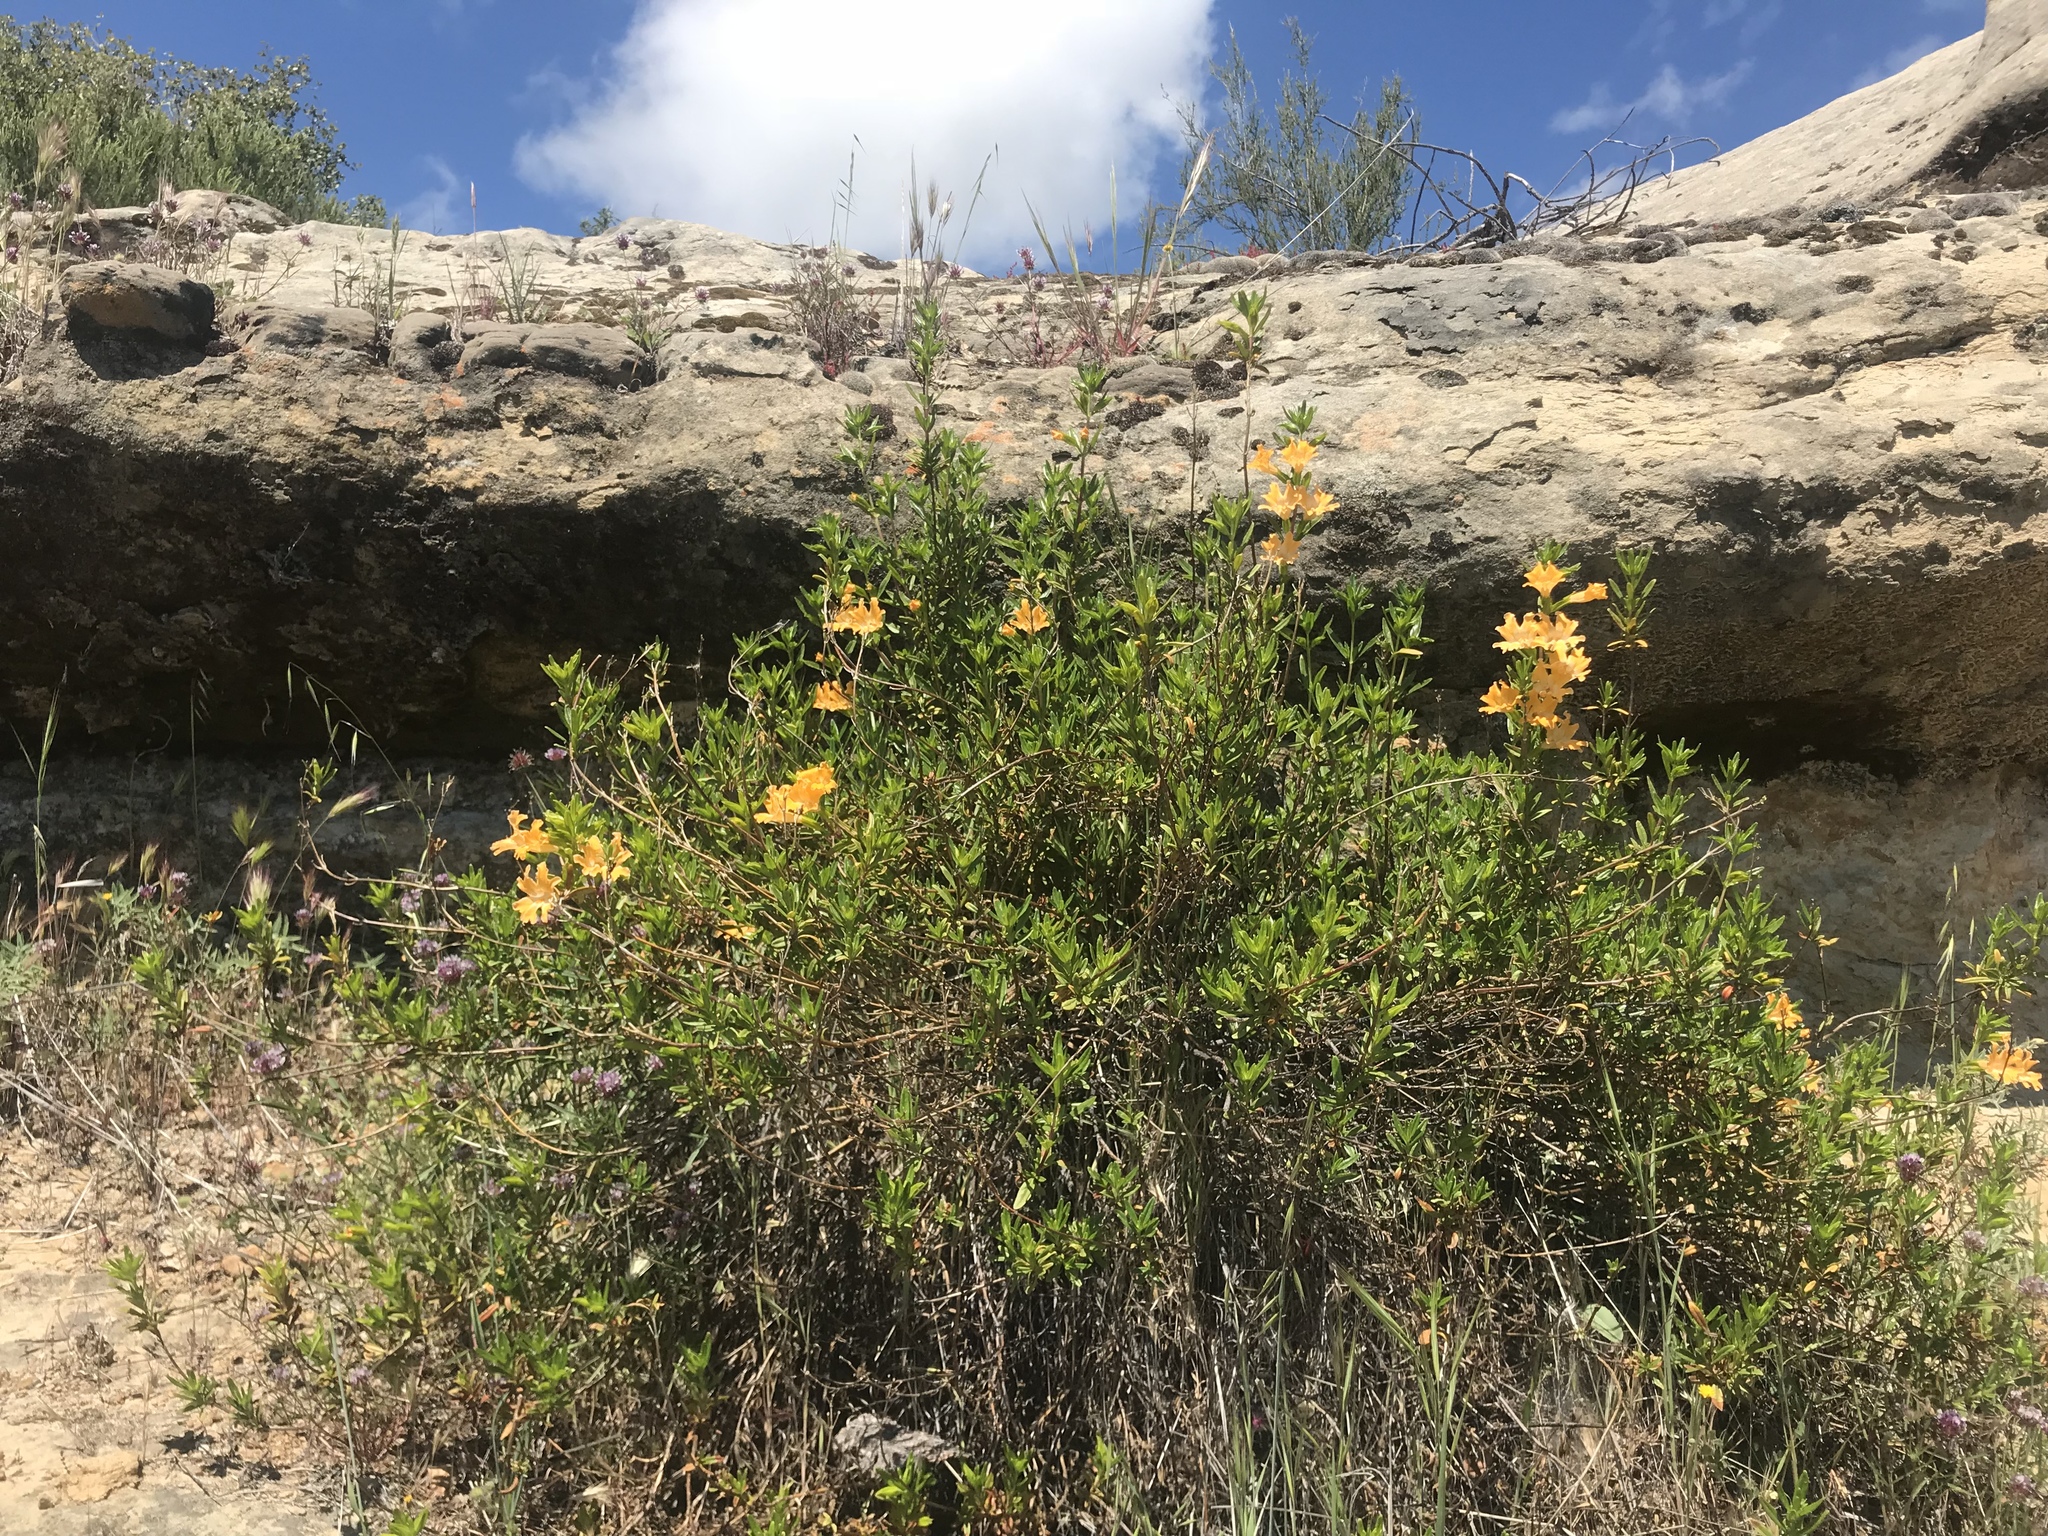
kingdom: Plantae
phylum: Tracheophyta
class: Magnoliopsida
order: Lamiales
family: Phrymaceae
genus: Diplacus
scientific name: Diplacus linearis
